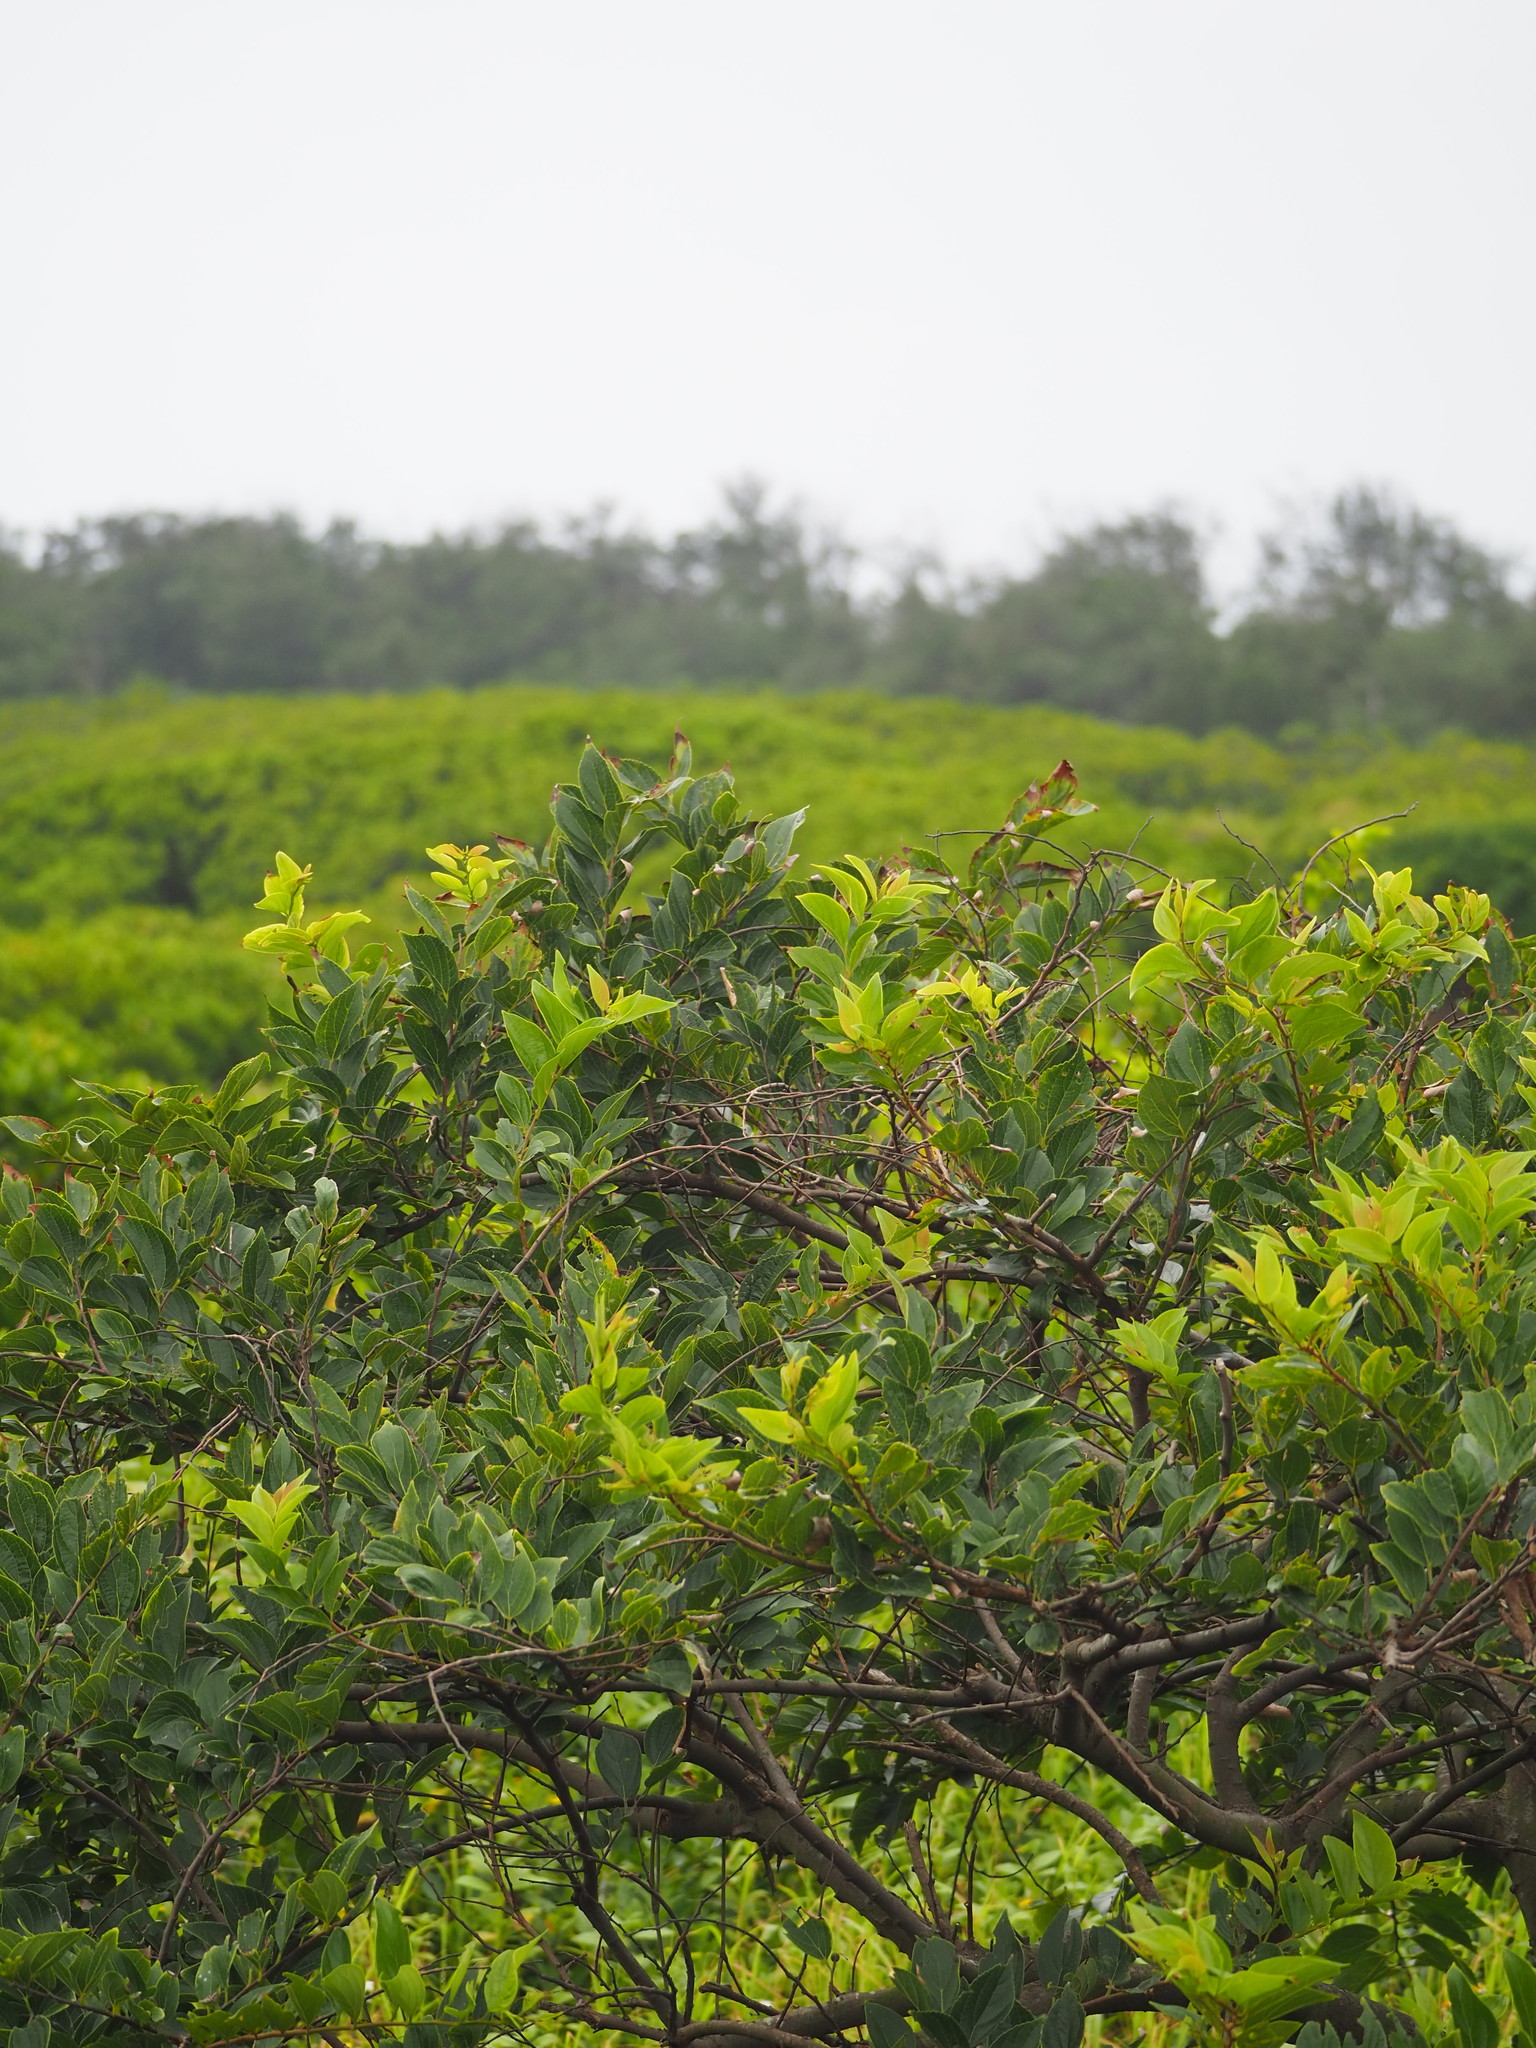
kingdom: Plantae
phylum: Tracheophyta
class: Magnoliopsida
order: Rosales
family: Cannabaceae
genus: Celtis
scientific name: Celtis sinensis
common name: Chinese hackberry
